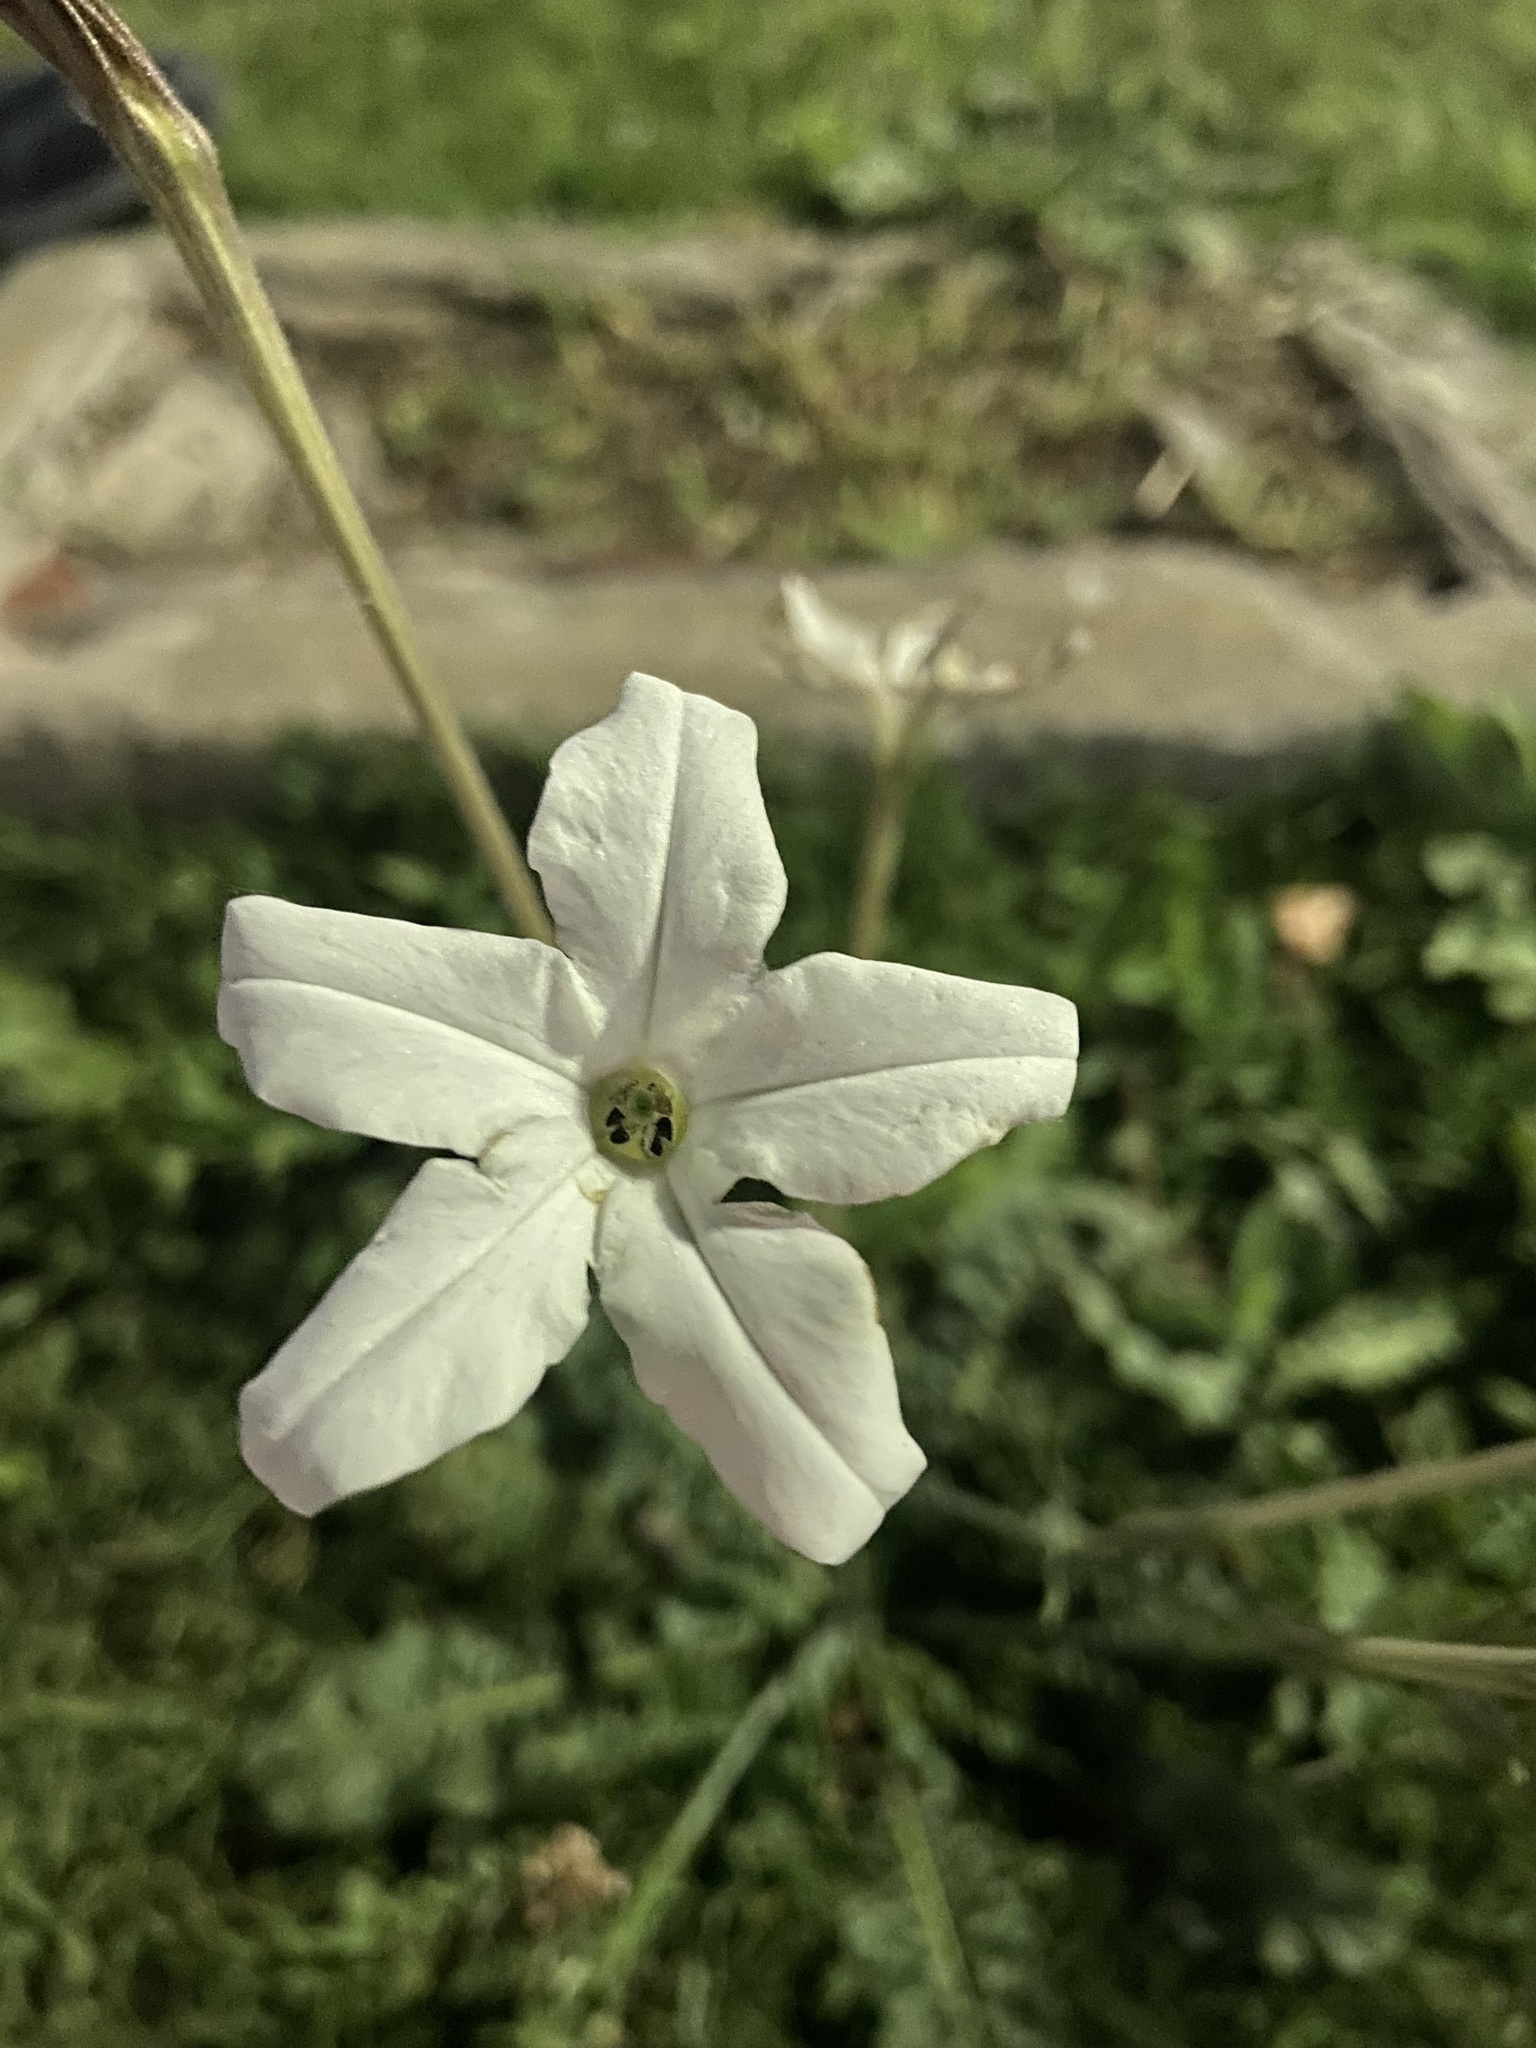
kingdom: Plantae
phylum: Tracheophyta
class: Magnoliopsida
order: Solanales
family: Solanaceae
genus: Nicotiana
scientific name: Nicotiana longiflora
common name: Long-flowered tobacco
